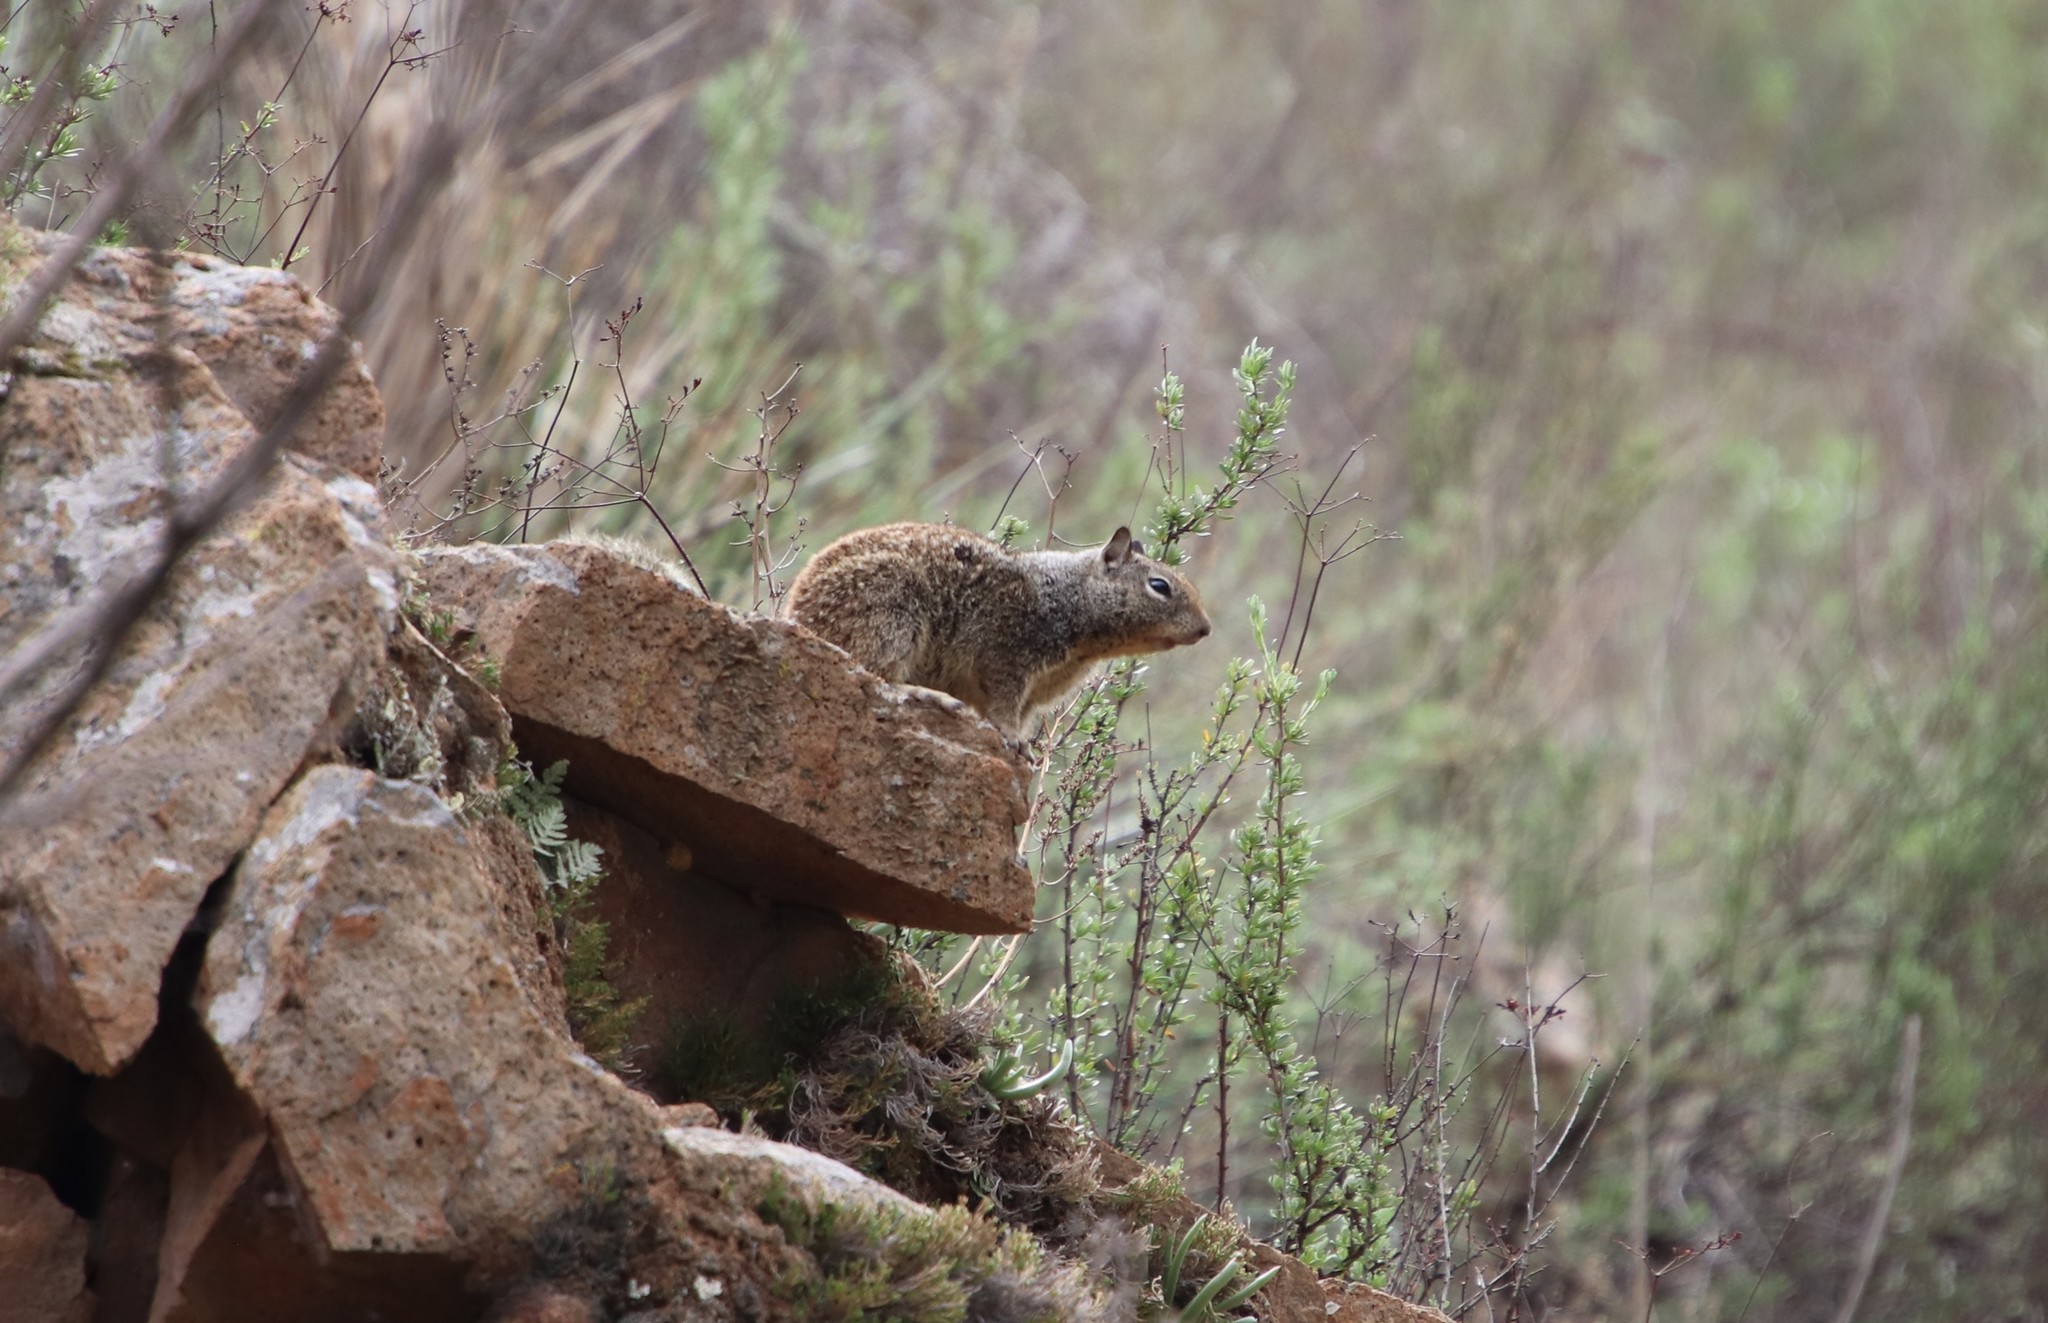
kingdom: Animalia
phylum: Chordata
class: Mammalia
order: Rodentia
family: Sciuridae
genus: Otospermophilus
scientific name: Otospermophilus beecheyi
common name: California ground squirrel
